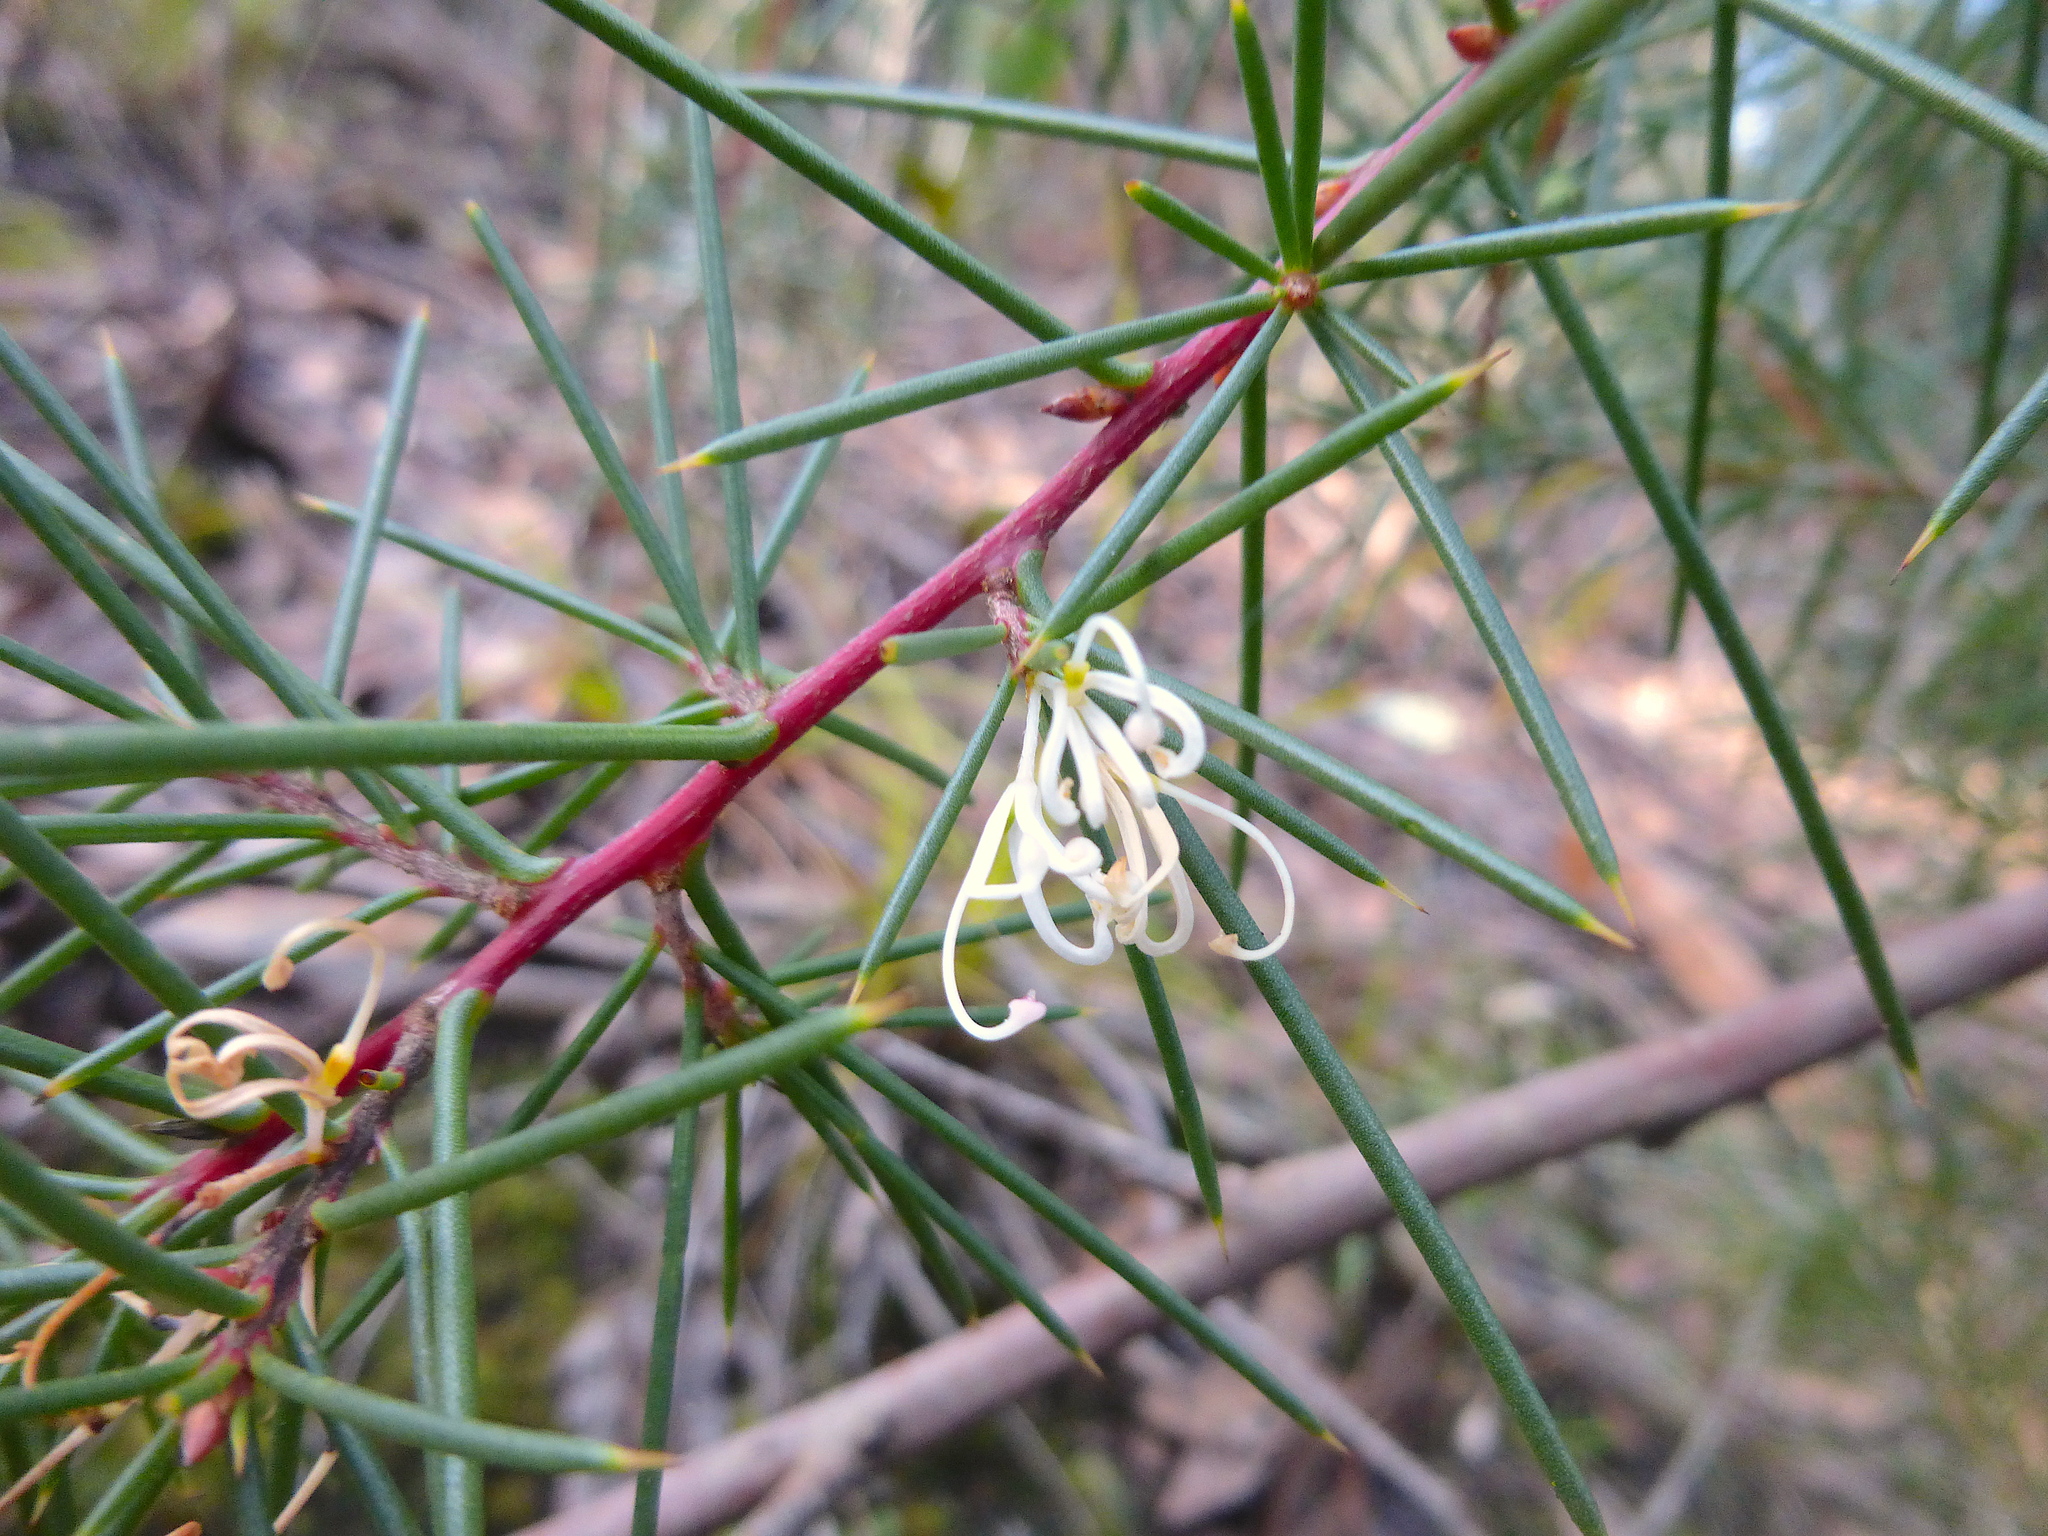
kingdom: Plantae
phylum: Tracheophyta
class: Magnoliopsida
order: Proteales
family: Proteaceae
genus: Hakea
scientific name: Hakea decurrens
